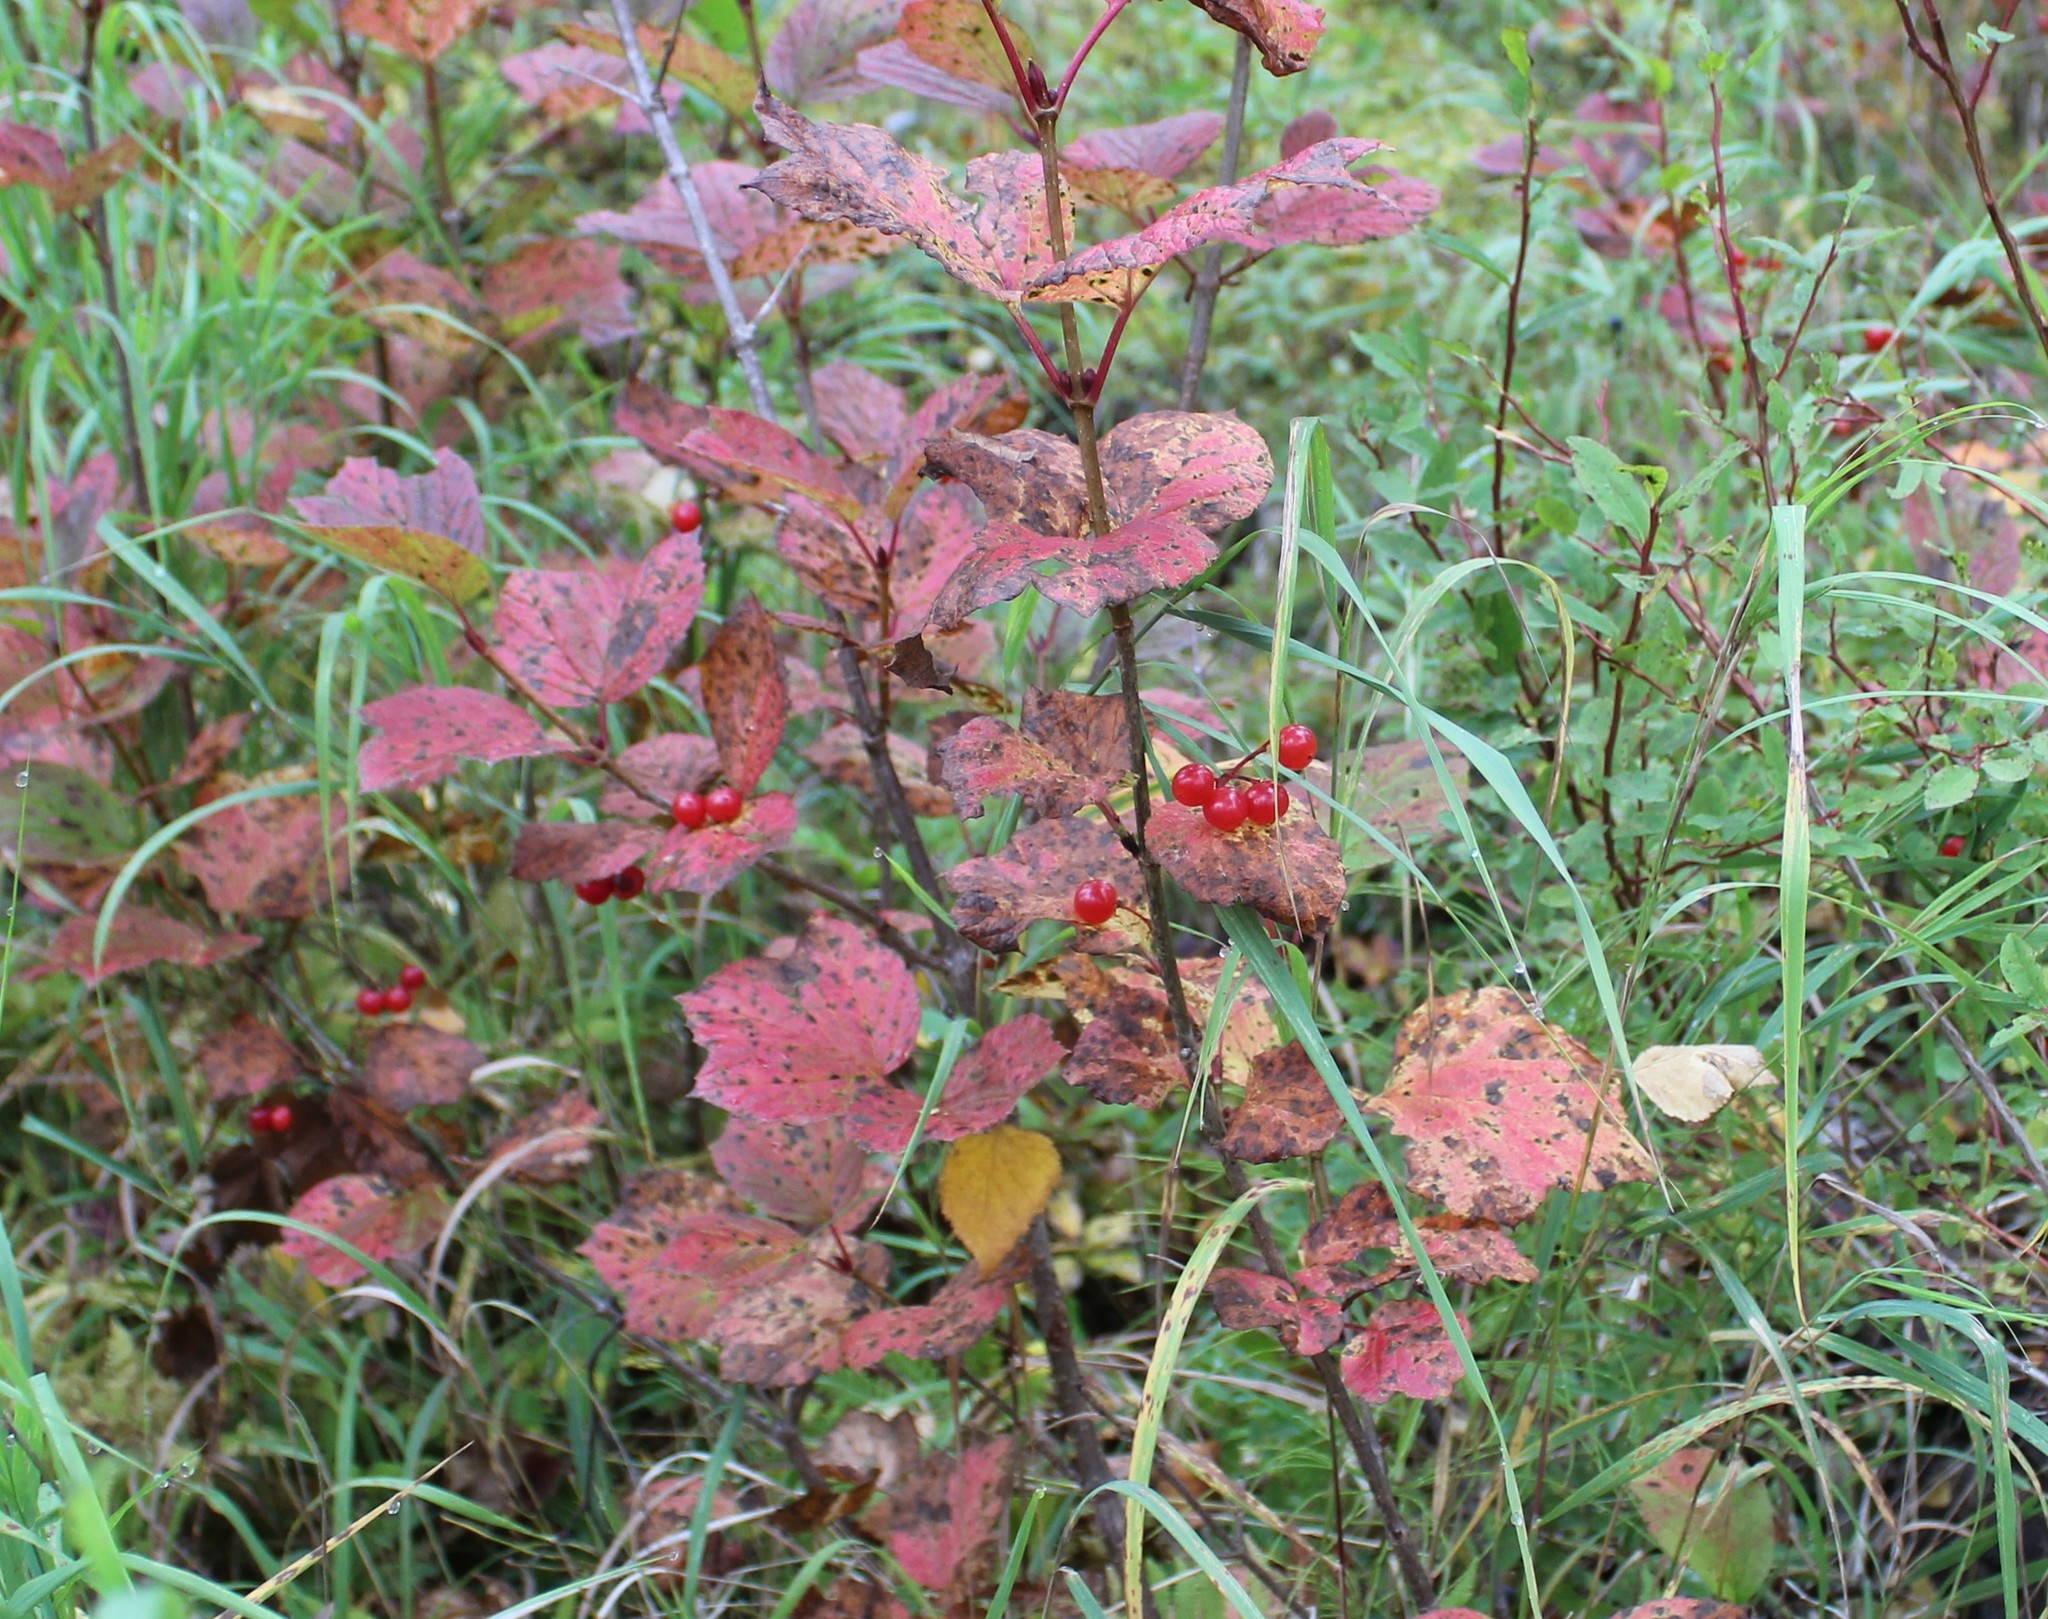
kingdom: Plantae
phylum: Tracheophyta
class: Magnoliopsida
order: Dipsacales
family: Viburnaceae
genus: Viburnum
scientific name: Viburnum edule
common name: Mooseberry
